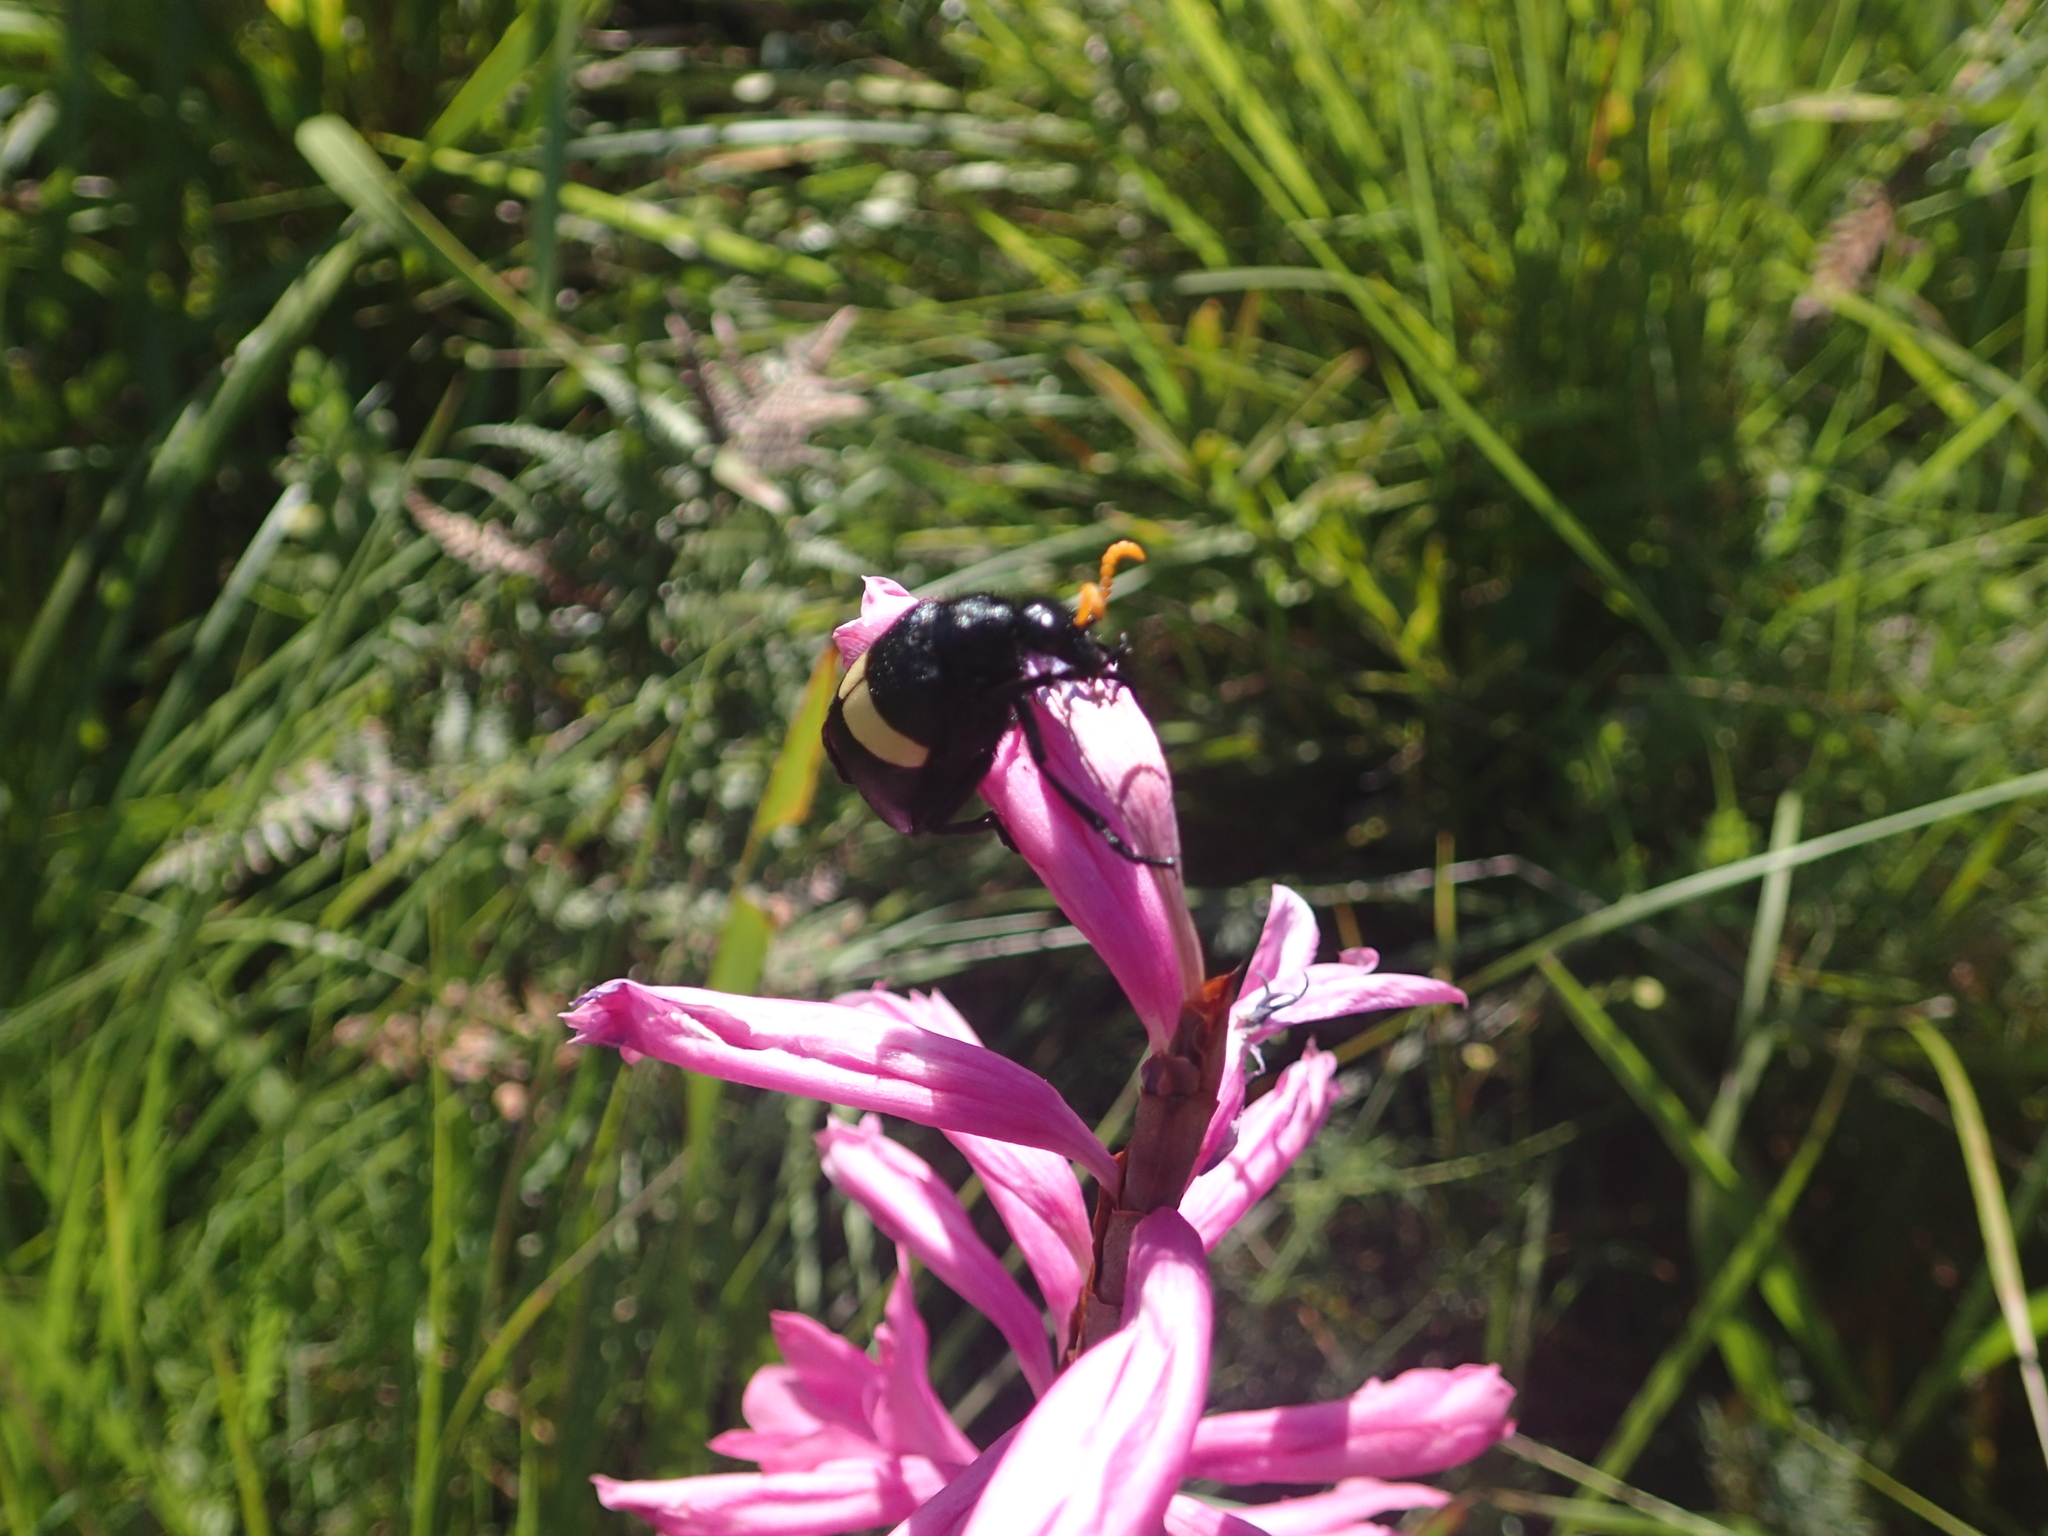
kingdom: Animalia
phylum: Arthropoda
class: Insecta
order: Coleoptera
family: Meloidae
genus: Hycleus
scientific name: Hycleus
